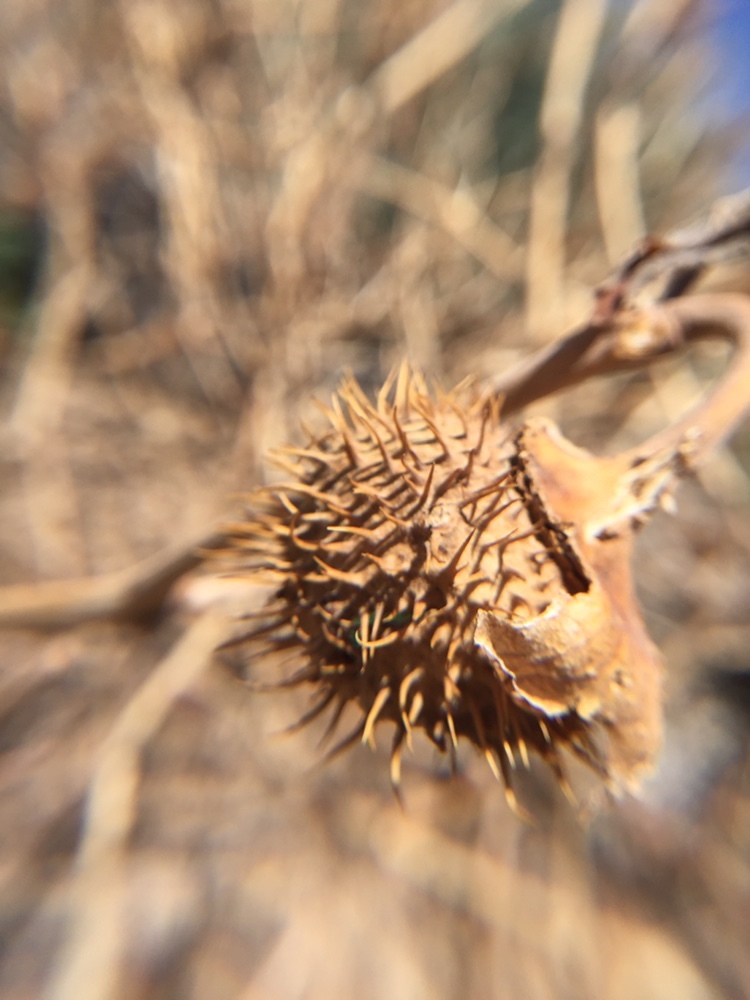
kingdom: Plantae
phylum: Tracheophyta
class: Magnoliopsida
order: Solanales
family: Solanaceae
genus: Datura
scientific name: Datura wrightii
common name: Sacred thorn-apple
